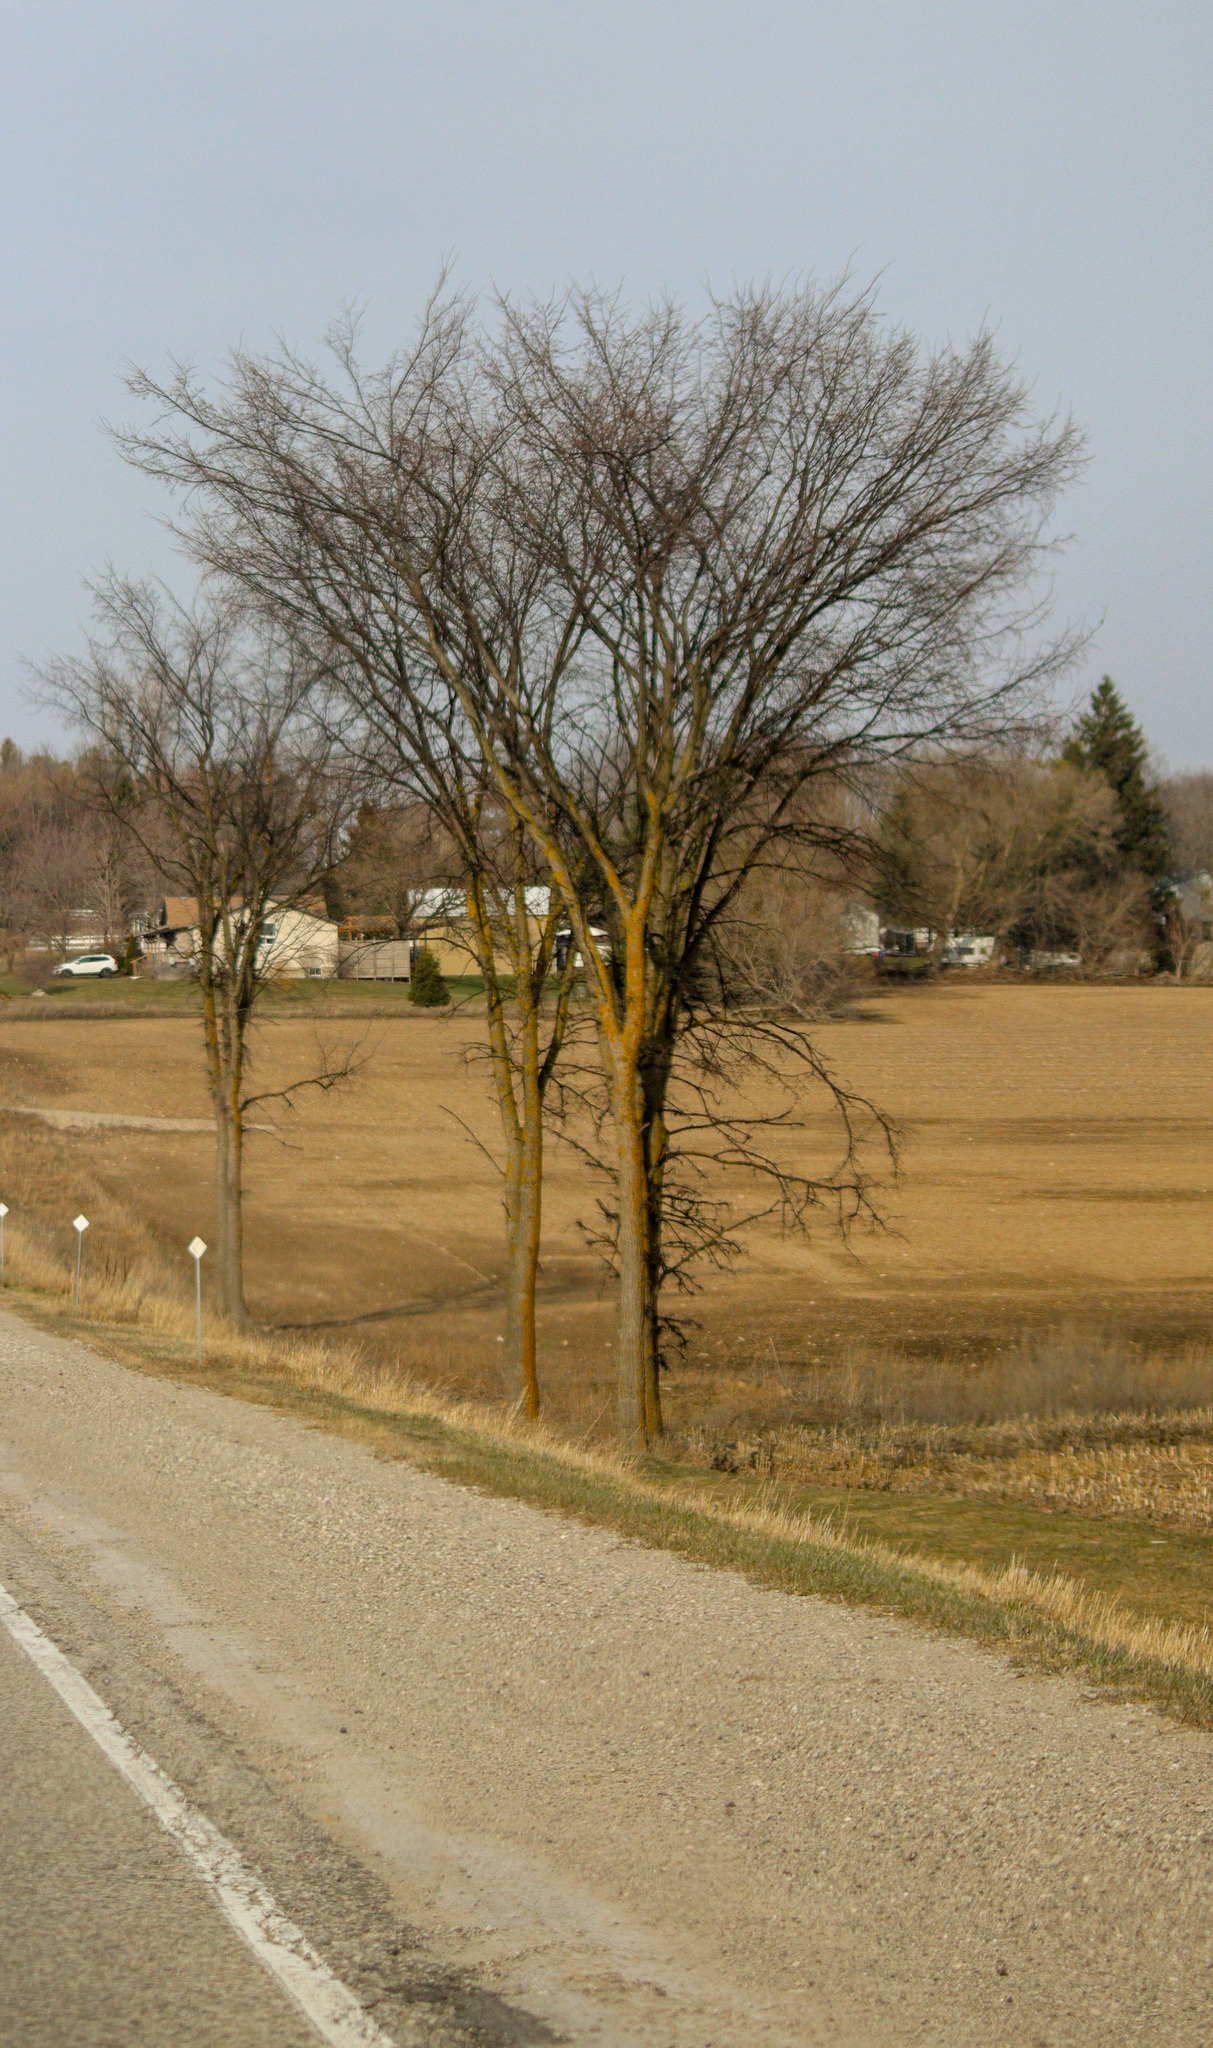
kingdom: Plantae
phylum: Tracheophyta
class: Magnoliopsida
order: Rosales
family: Ulmaceae
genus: Ulmus
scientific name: Ulmus americana
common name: American elm
